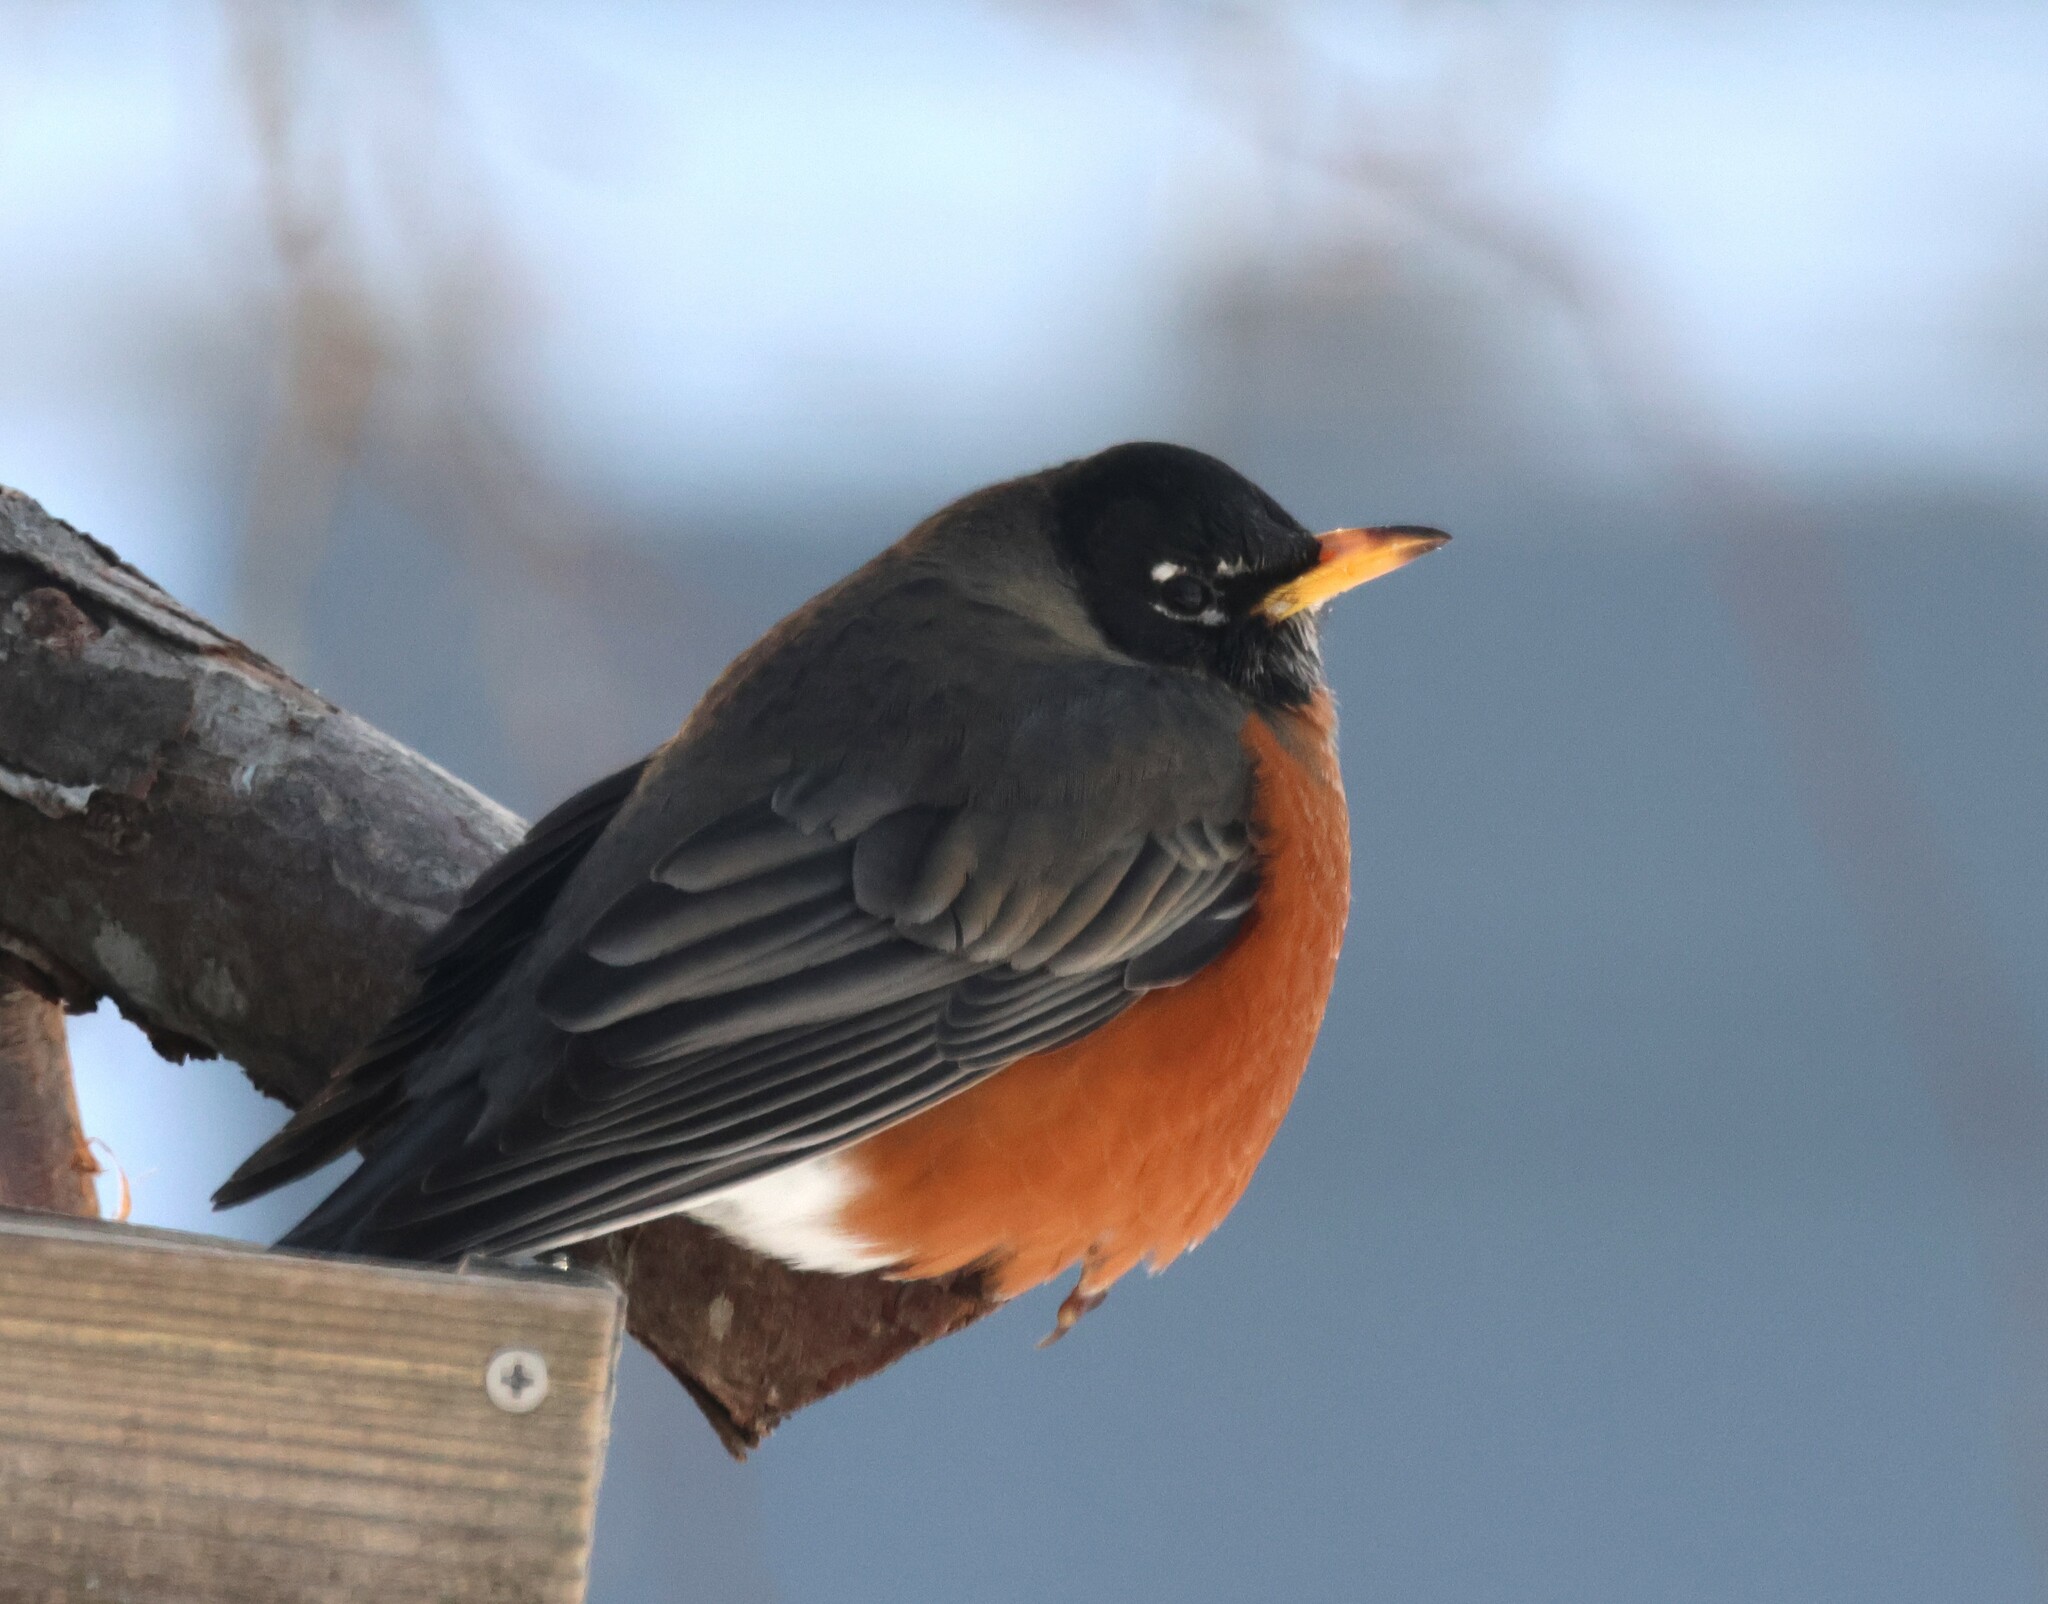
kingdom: Animalia
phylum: Chordata
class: Aves
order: Passeriformes
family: Turdidae
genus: Turdus
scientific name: Turdus migratorius
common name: American robin
